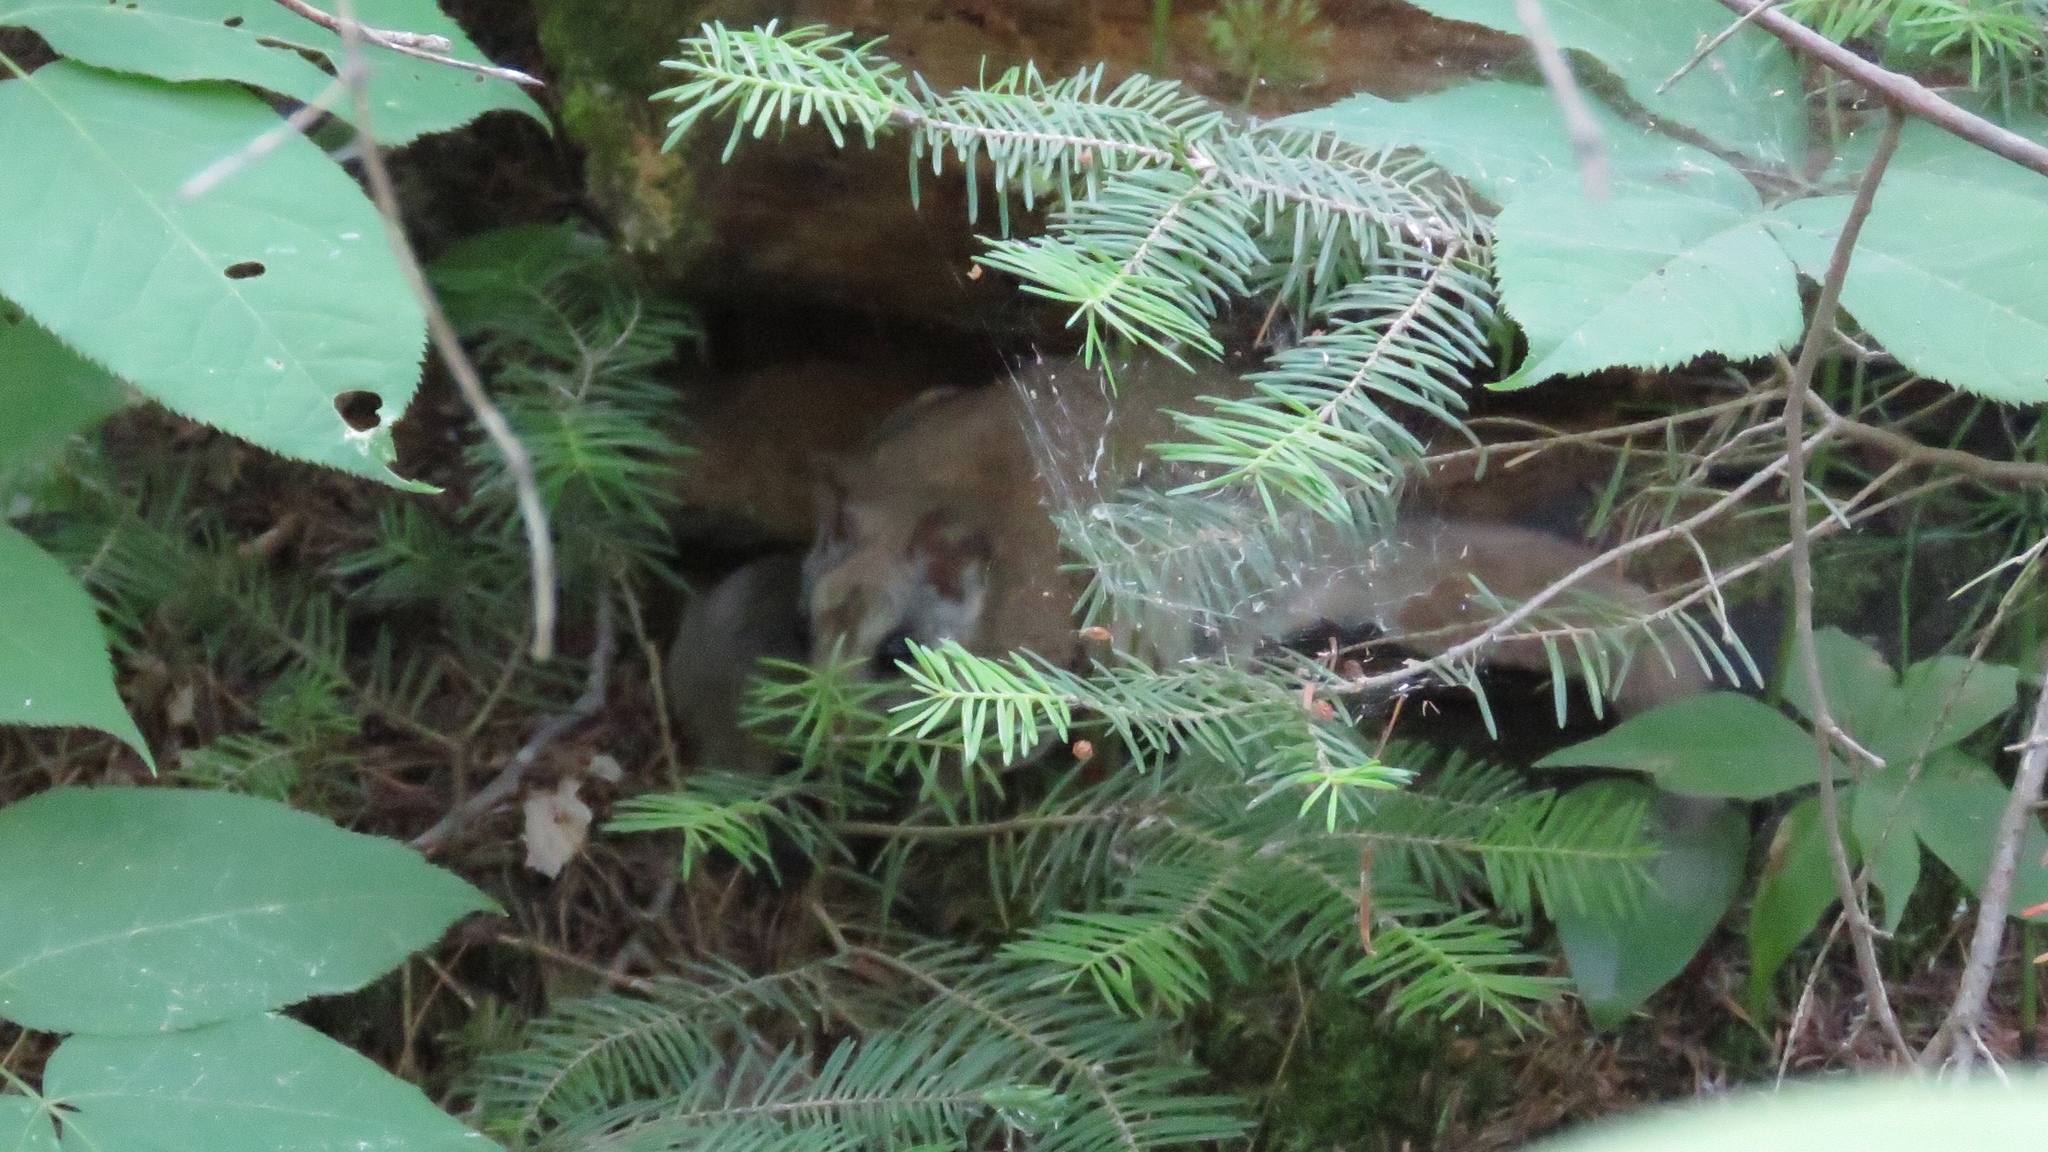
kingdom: Animalia
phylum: Chordata
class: Mammalia
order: Rodentia
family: Sciuridae
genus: Glaucomys
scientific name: Glaucomys sabrinus
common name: Northern flying squirrel
